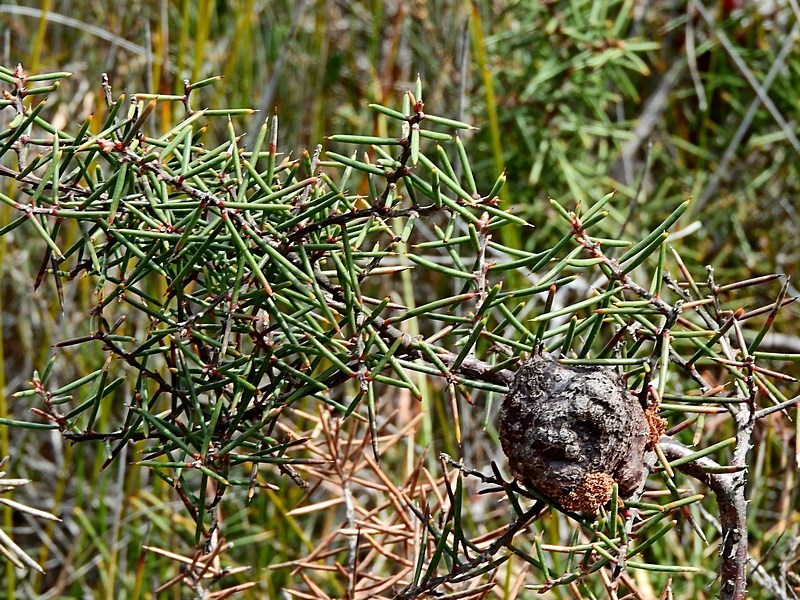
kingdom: Plantae
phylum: Tracheophyta
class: Magnoliopsida
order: Proteales
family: Proteaceae
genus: Hakea
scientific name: Hakea decurrens
